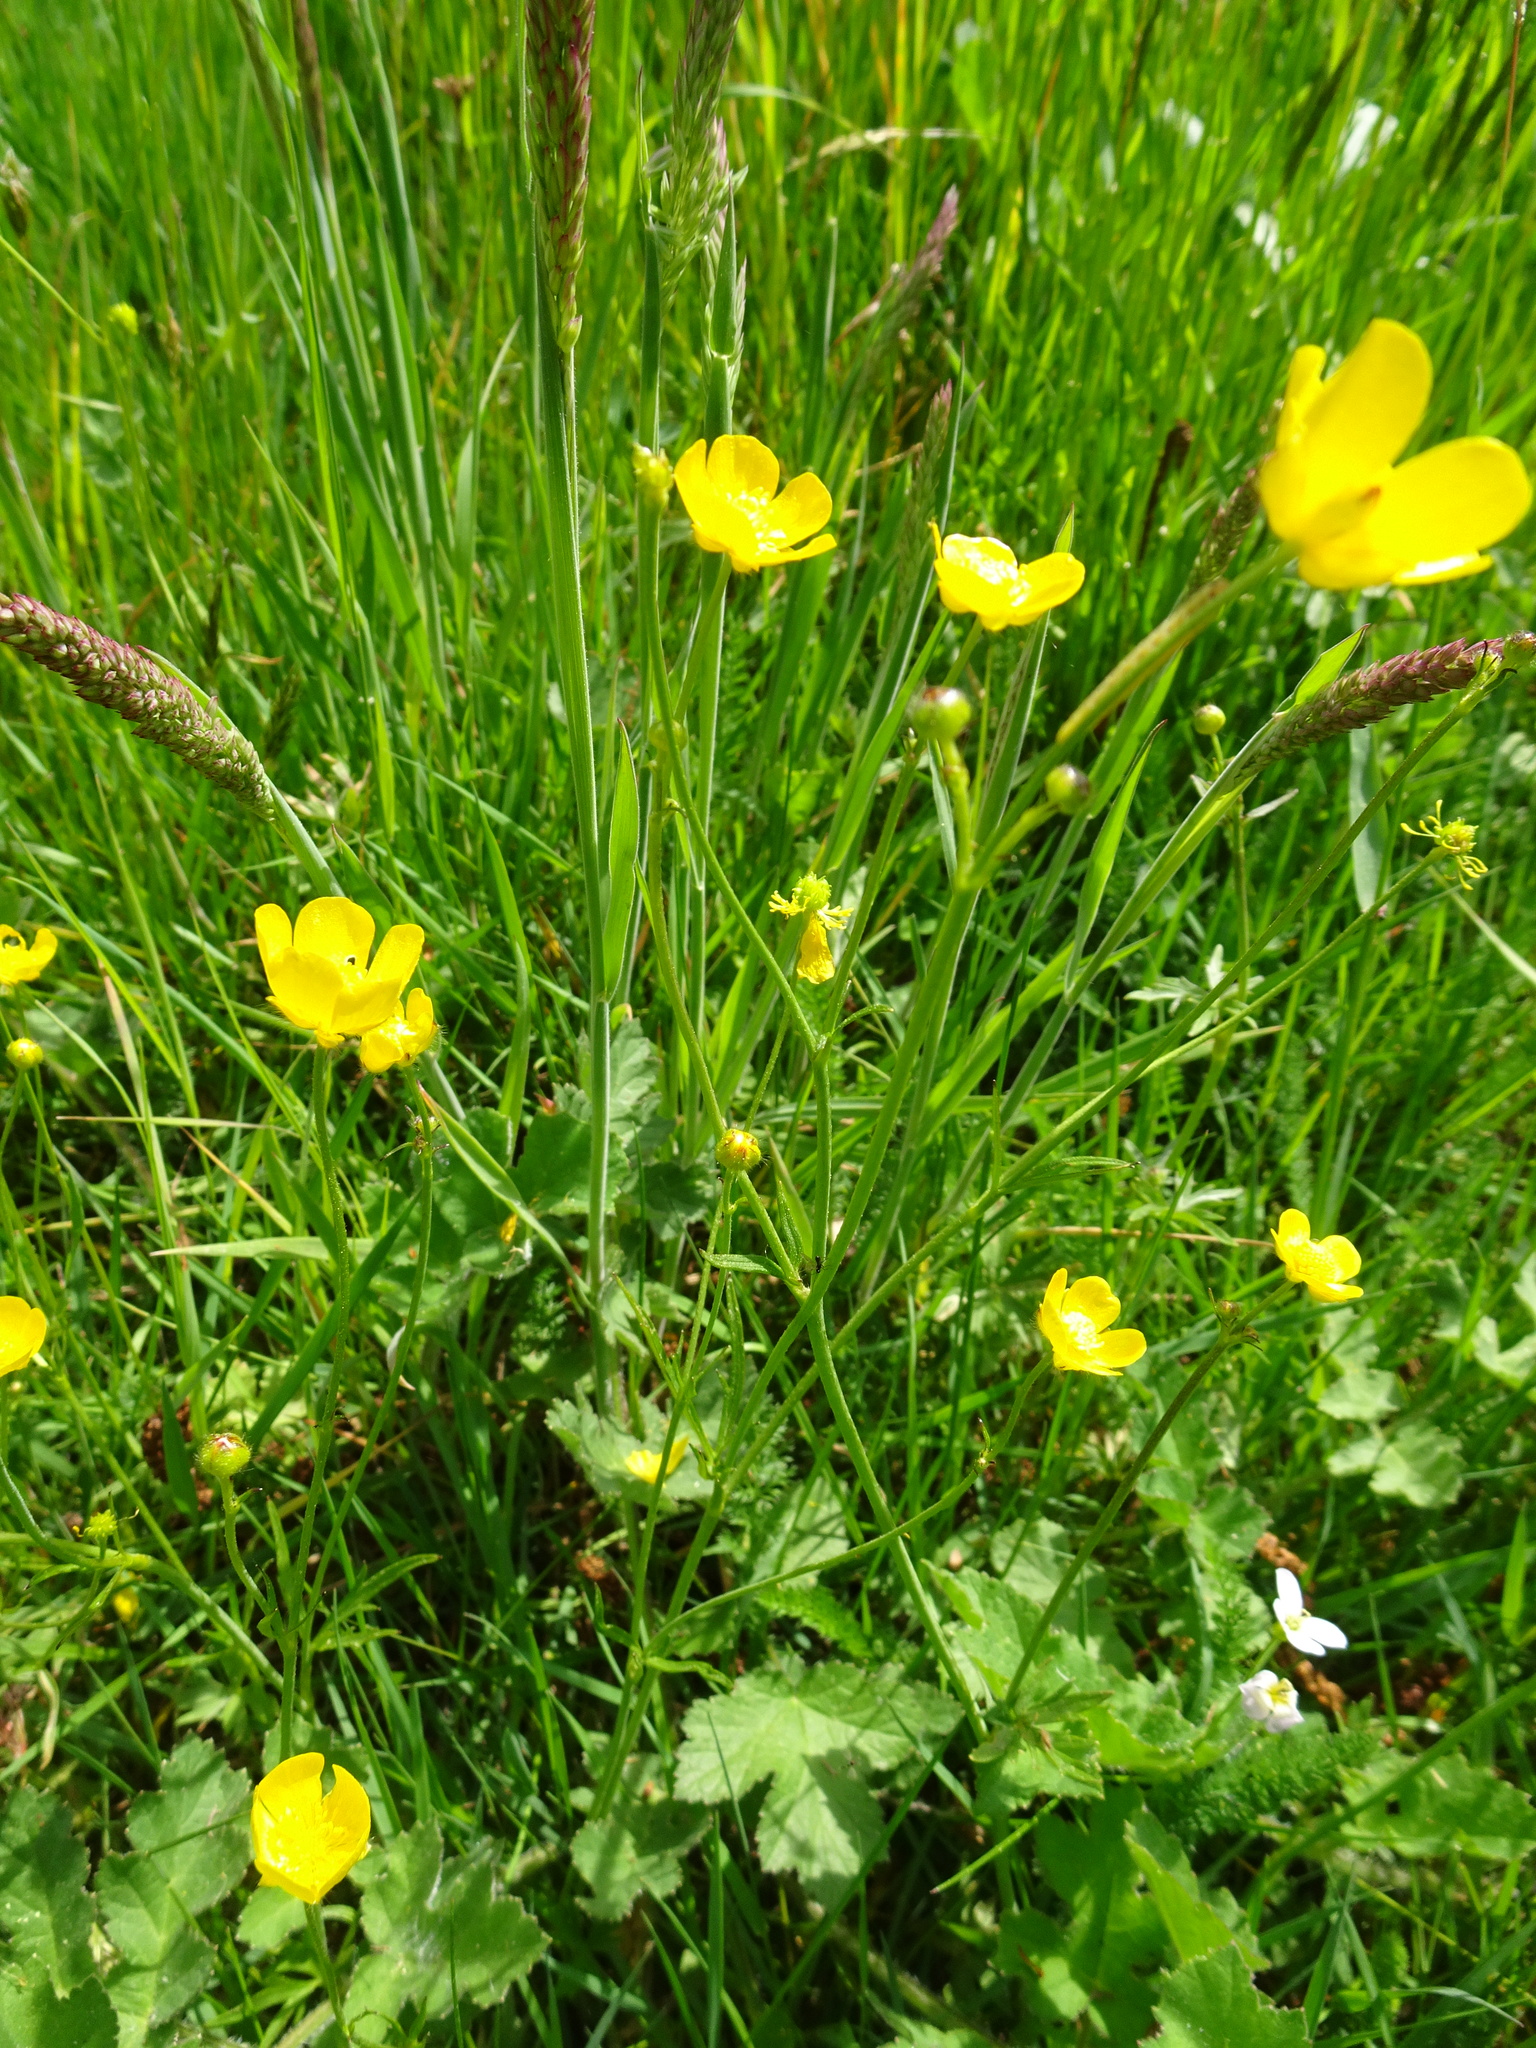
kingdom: Plantae
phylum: Tracheophyta
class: Magnoliopsida
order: Ranunculales
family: Ranunculaceae
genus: Ranunculus
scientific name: Ranunculus repens
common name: Creeping buttercup
